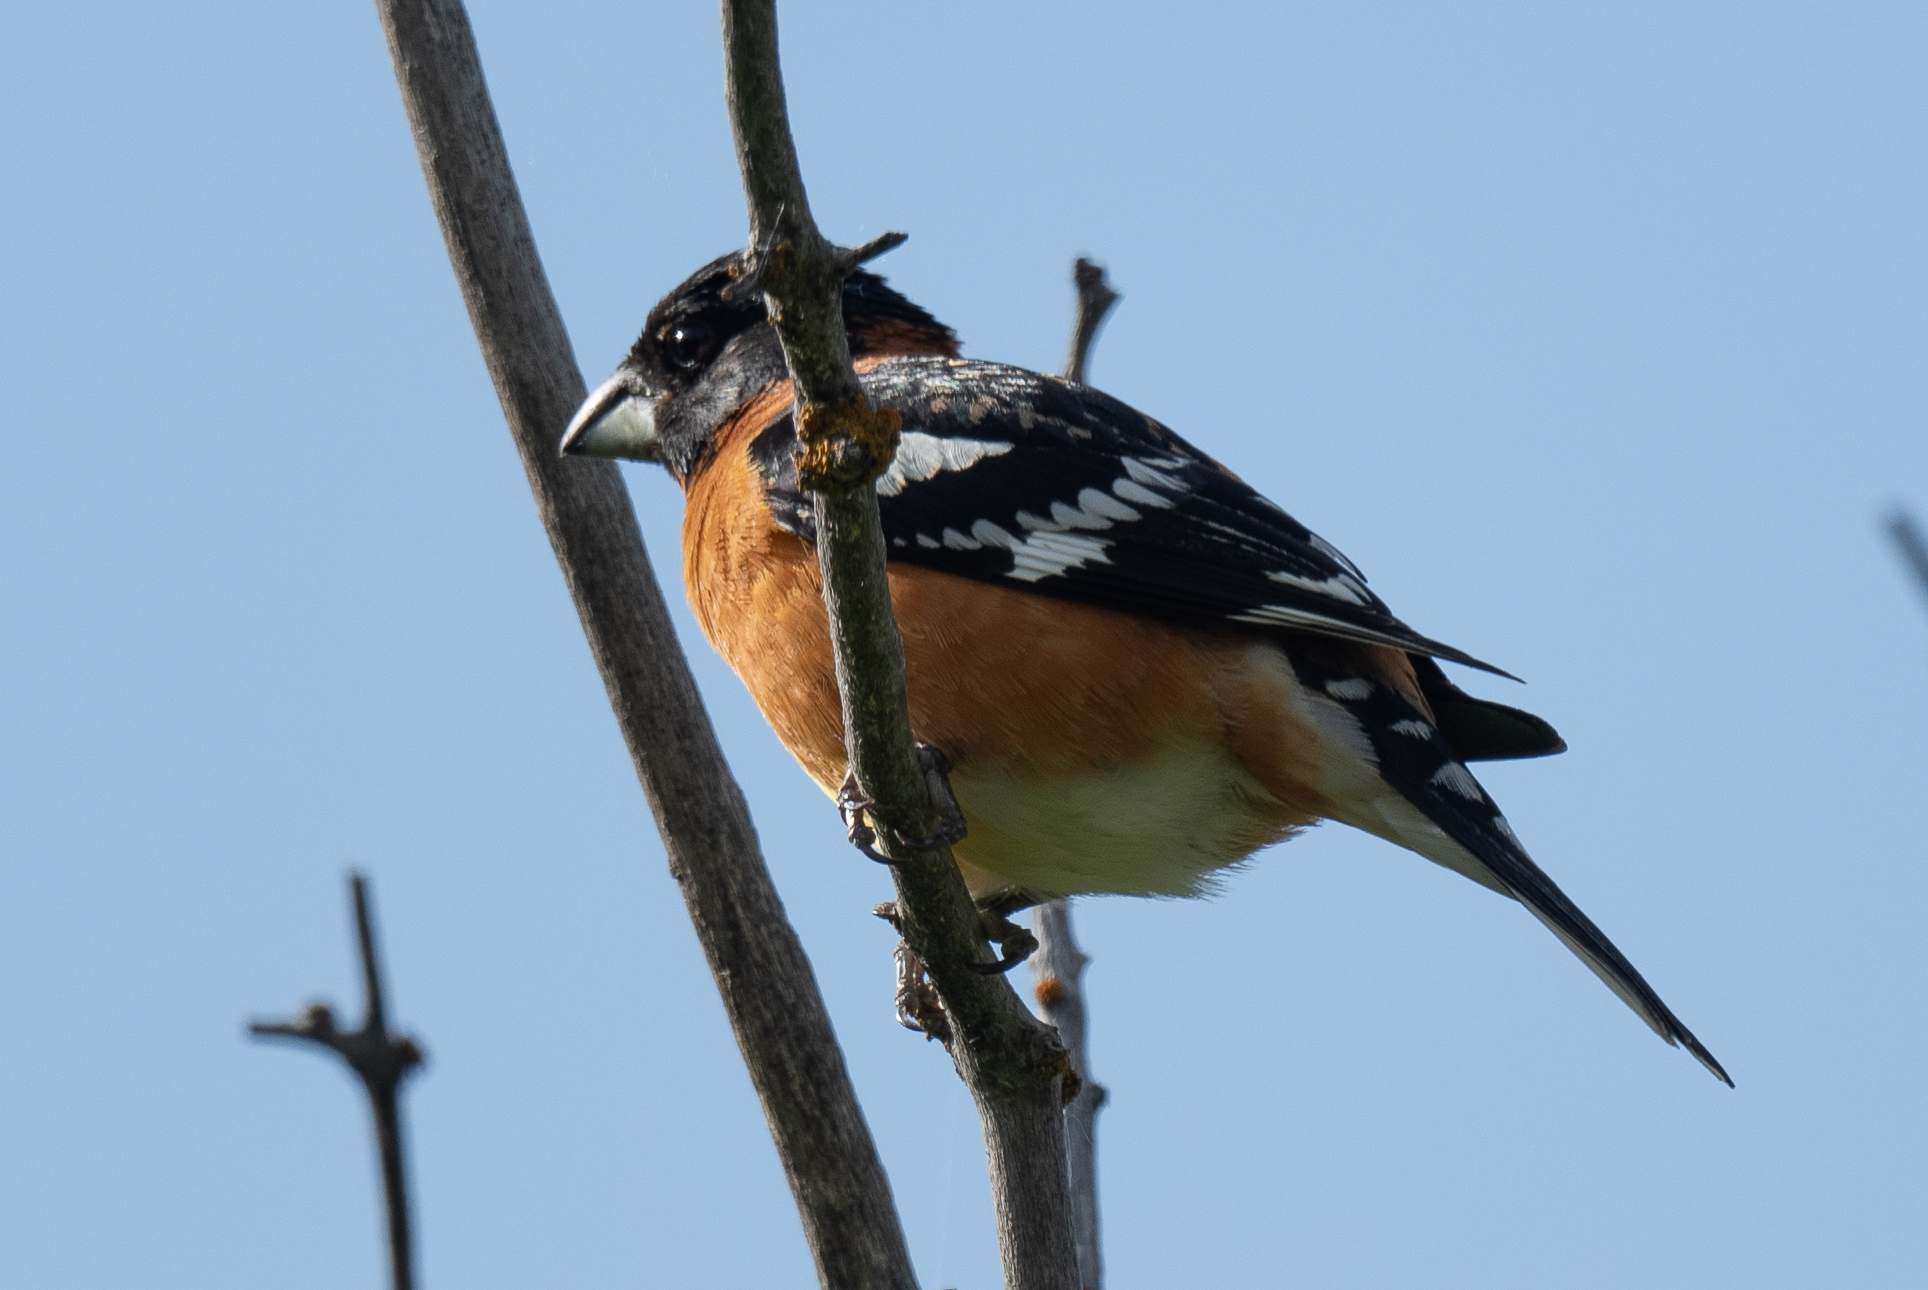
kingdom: Animalia
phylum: Chordata
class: Aves
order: Passeriformes
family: Cardinalidae
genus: Pheucticus
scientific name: Pheucticus melanocephalus
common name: Black-headed grosbeak
